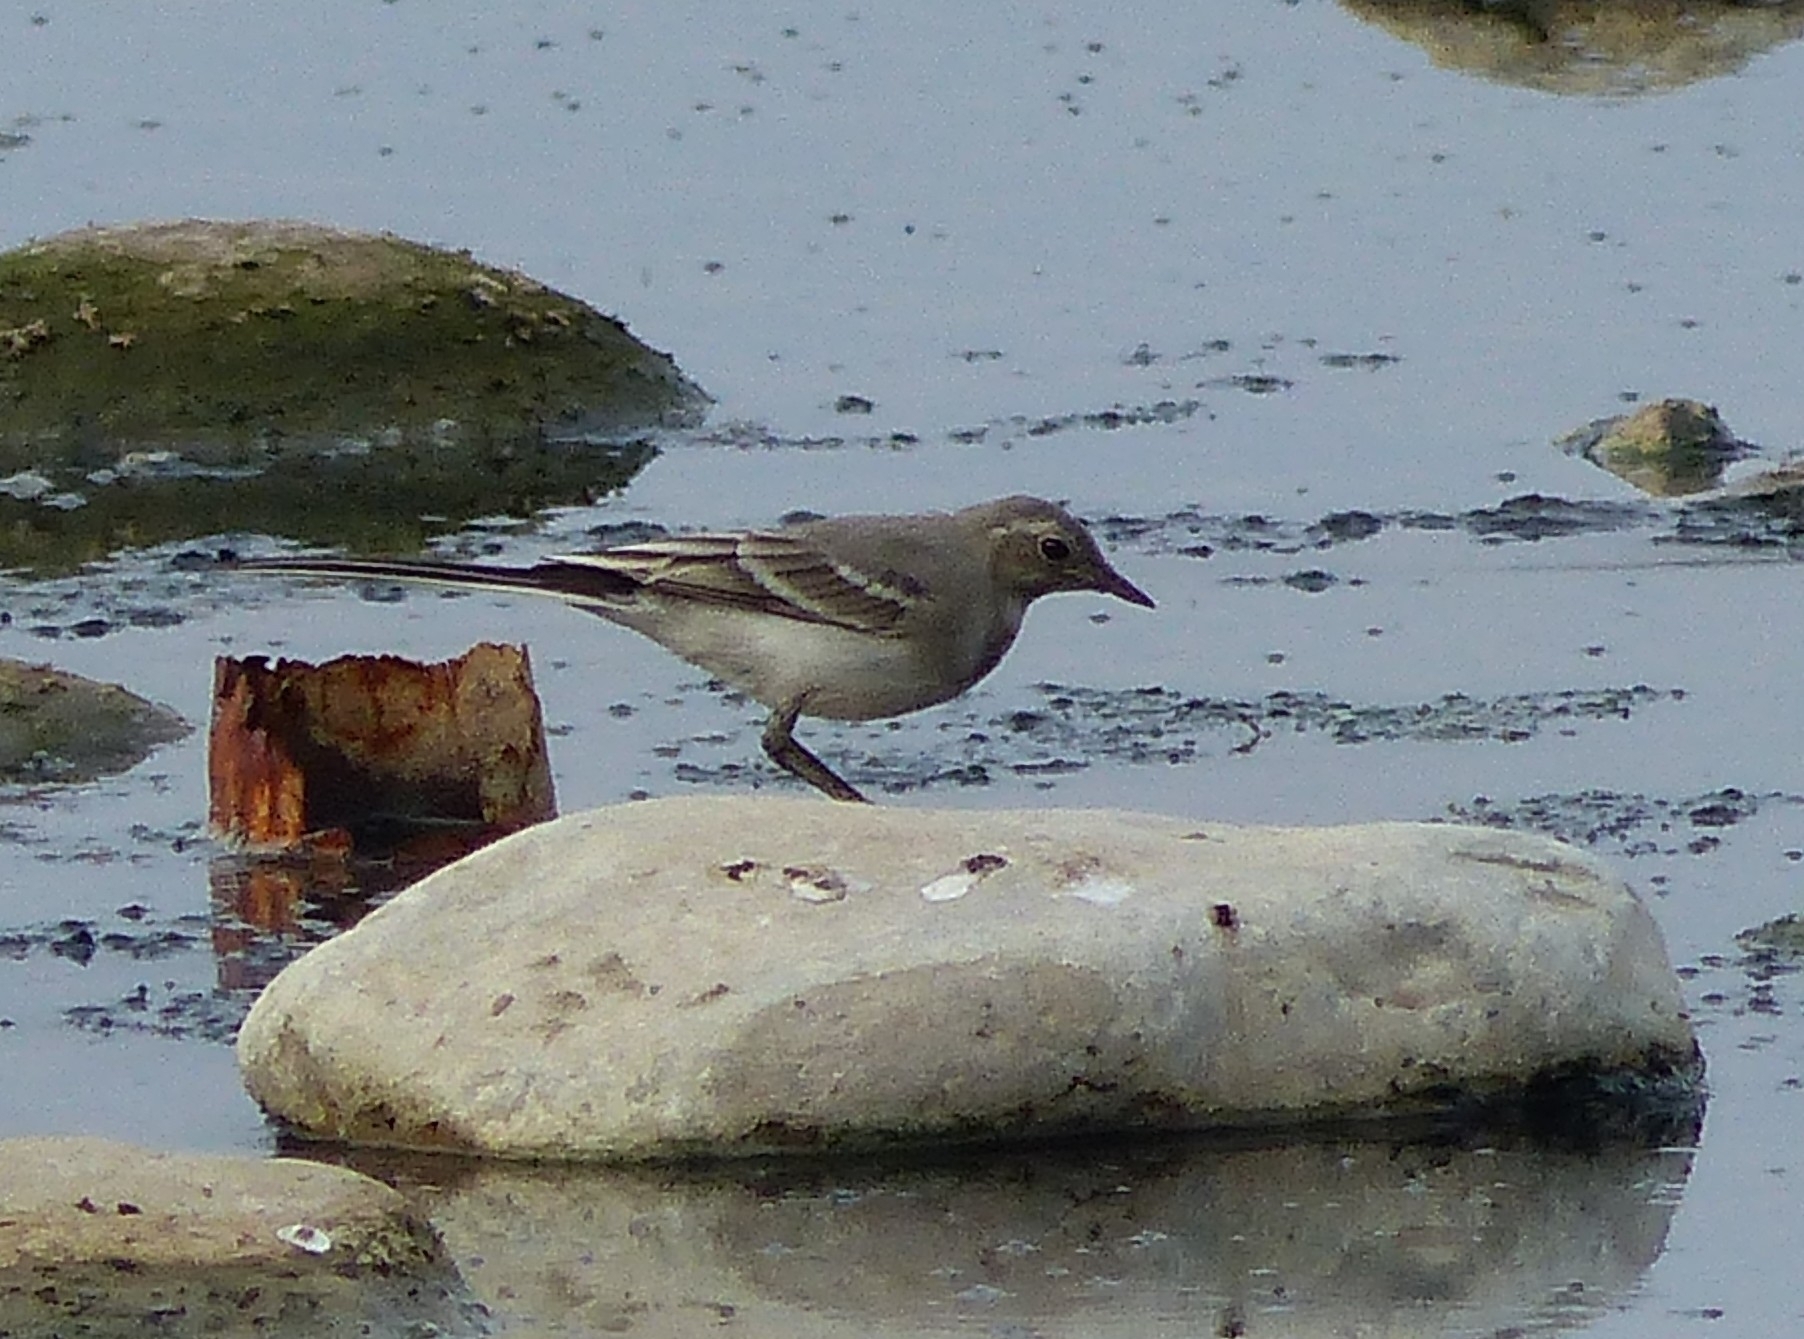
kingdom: Animalia
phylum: Chordata
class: Aves
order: Passeriformes
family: Motacillidae
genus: Motacilla
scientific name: Motacilla alba
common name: White wagtail
